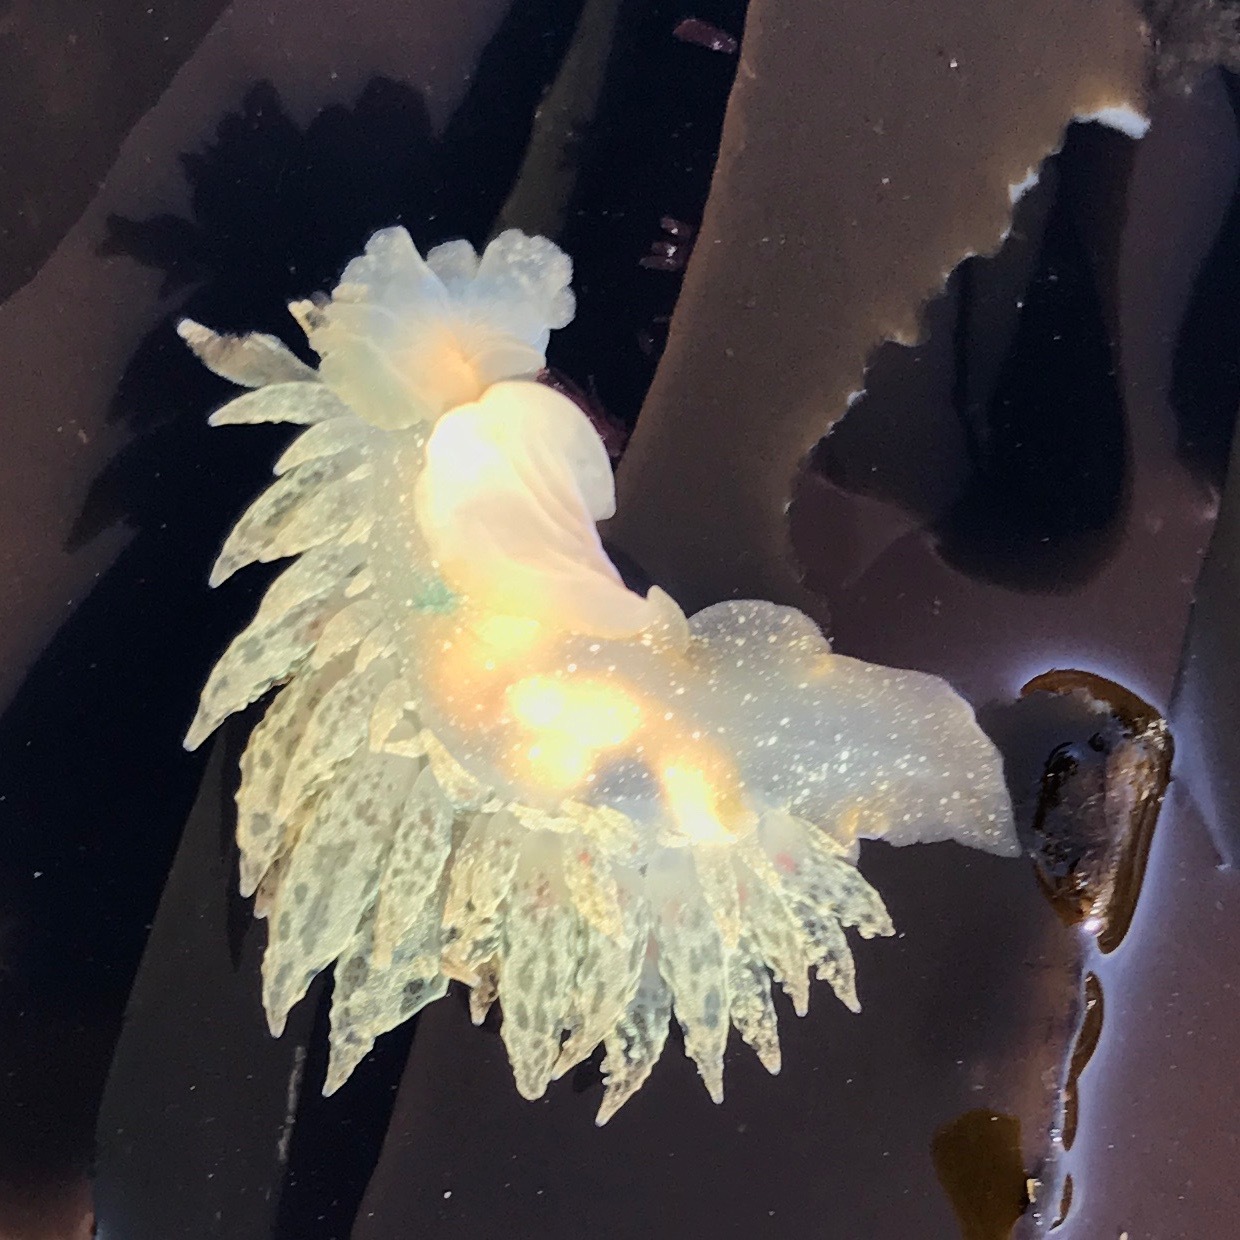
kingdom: Animalia
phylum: Mollusca
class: Gastropoda
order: Nudibranchia
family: Dironidae
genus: Dirona
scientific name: Dirona picta
